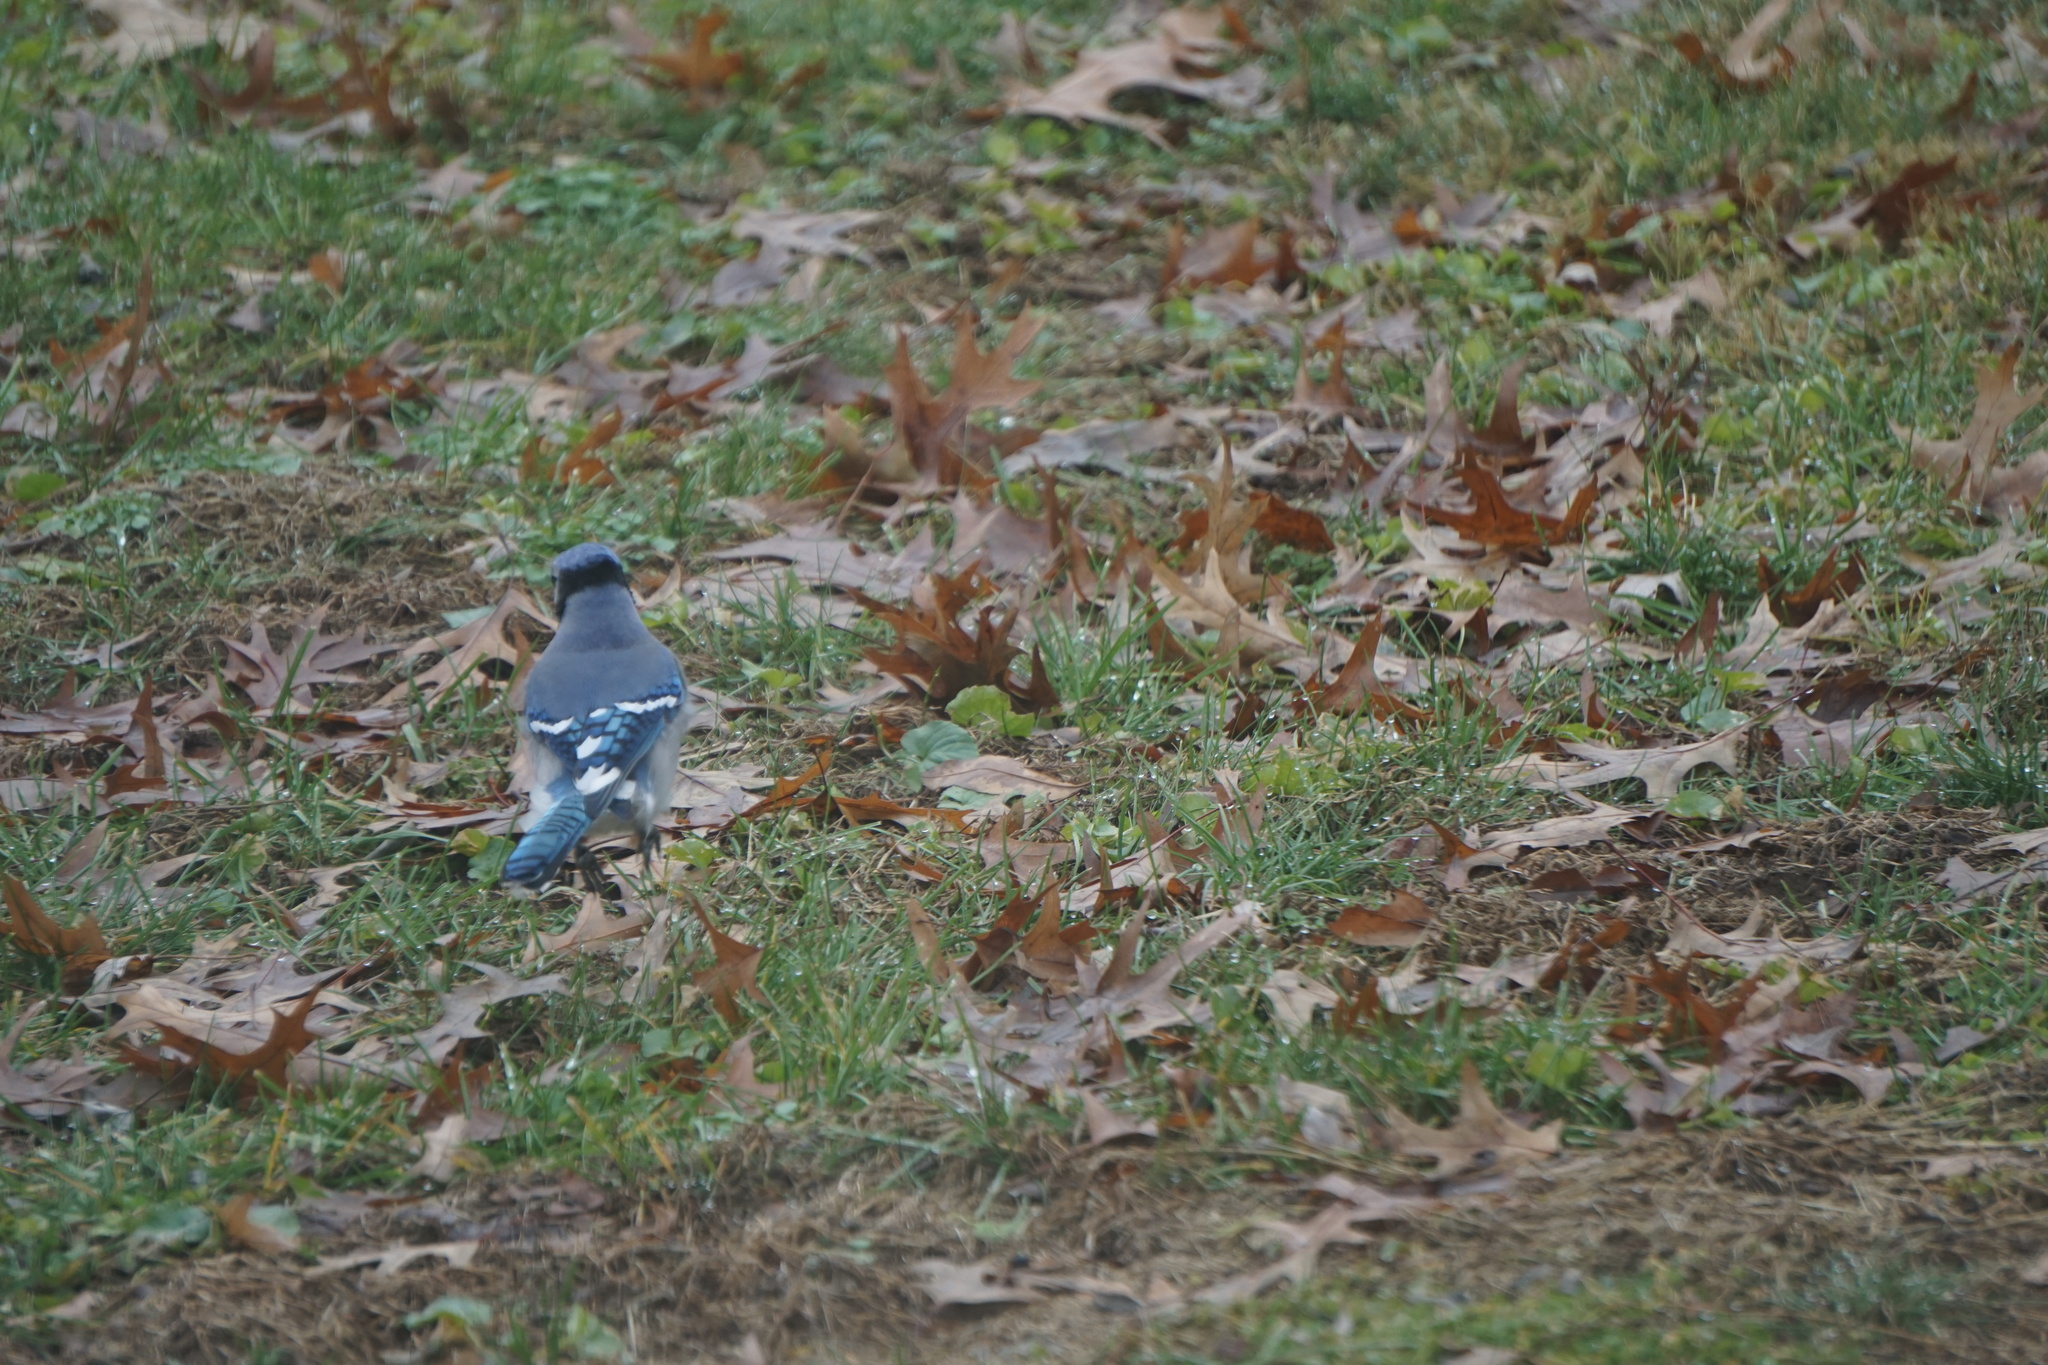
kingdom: Animalia
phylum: Chordata
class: Aves
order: Passeriformes
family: Corvidae
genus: Cyanocitta
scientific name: Cyanocitta cristata
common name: Blue jay
